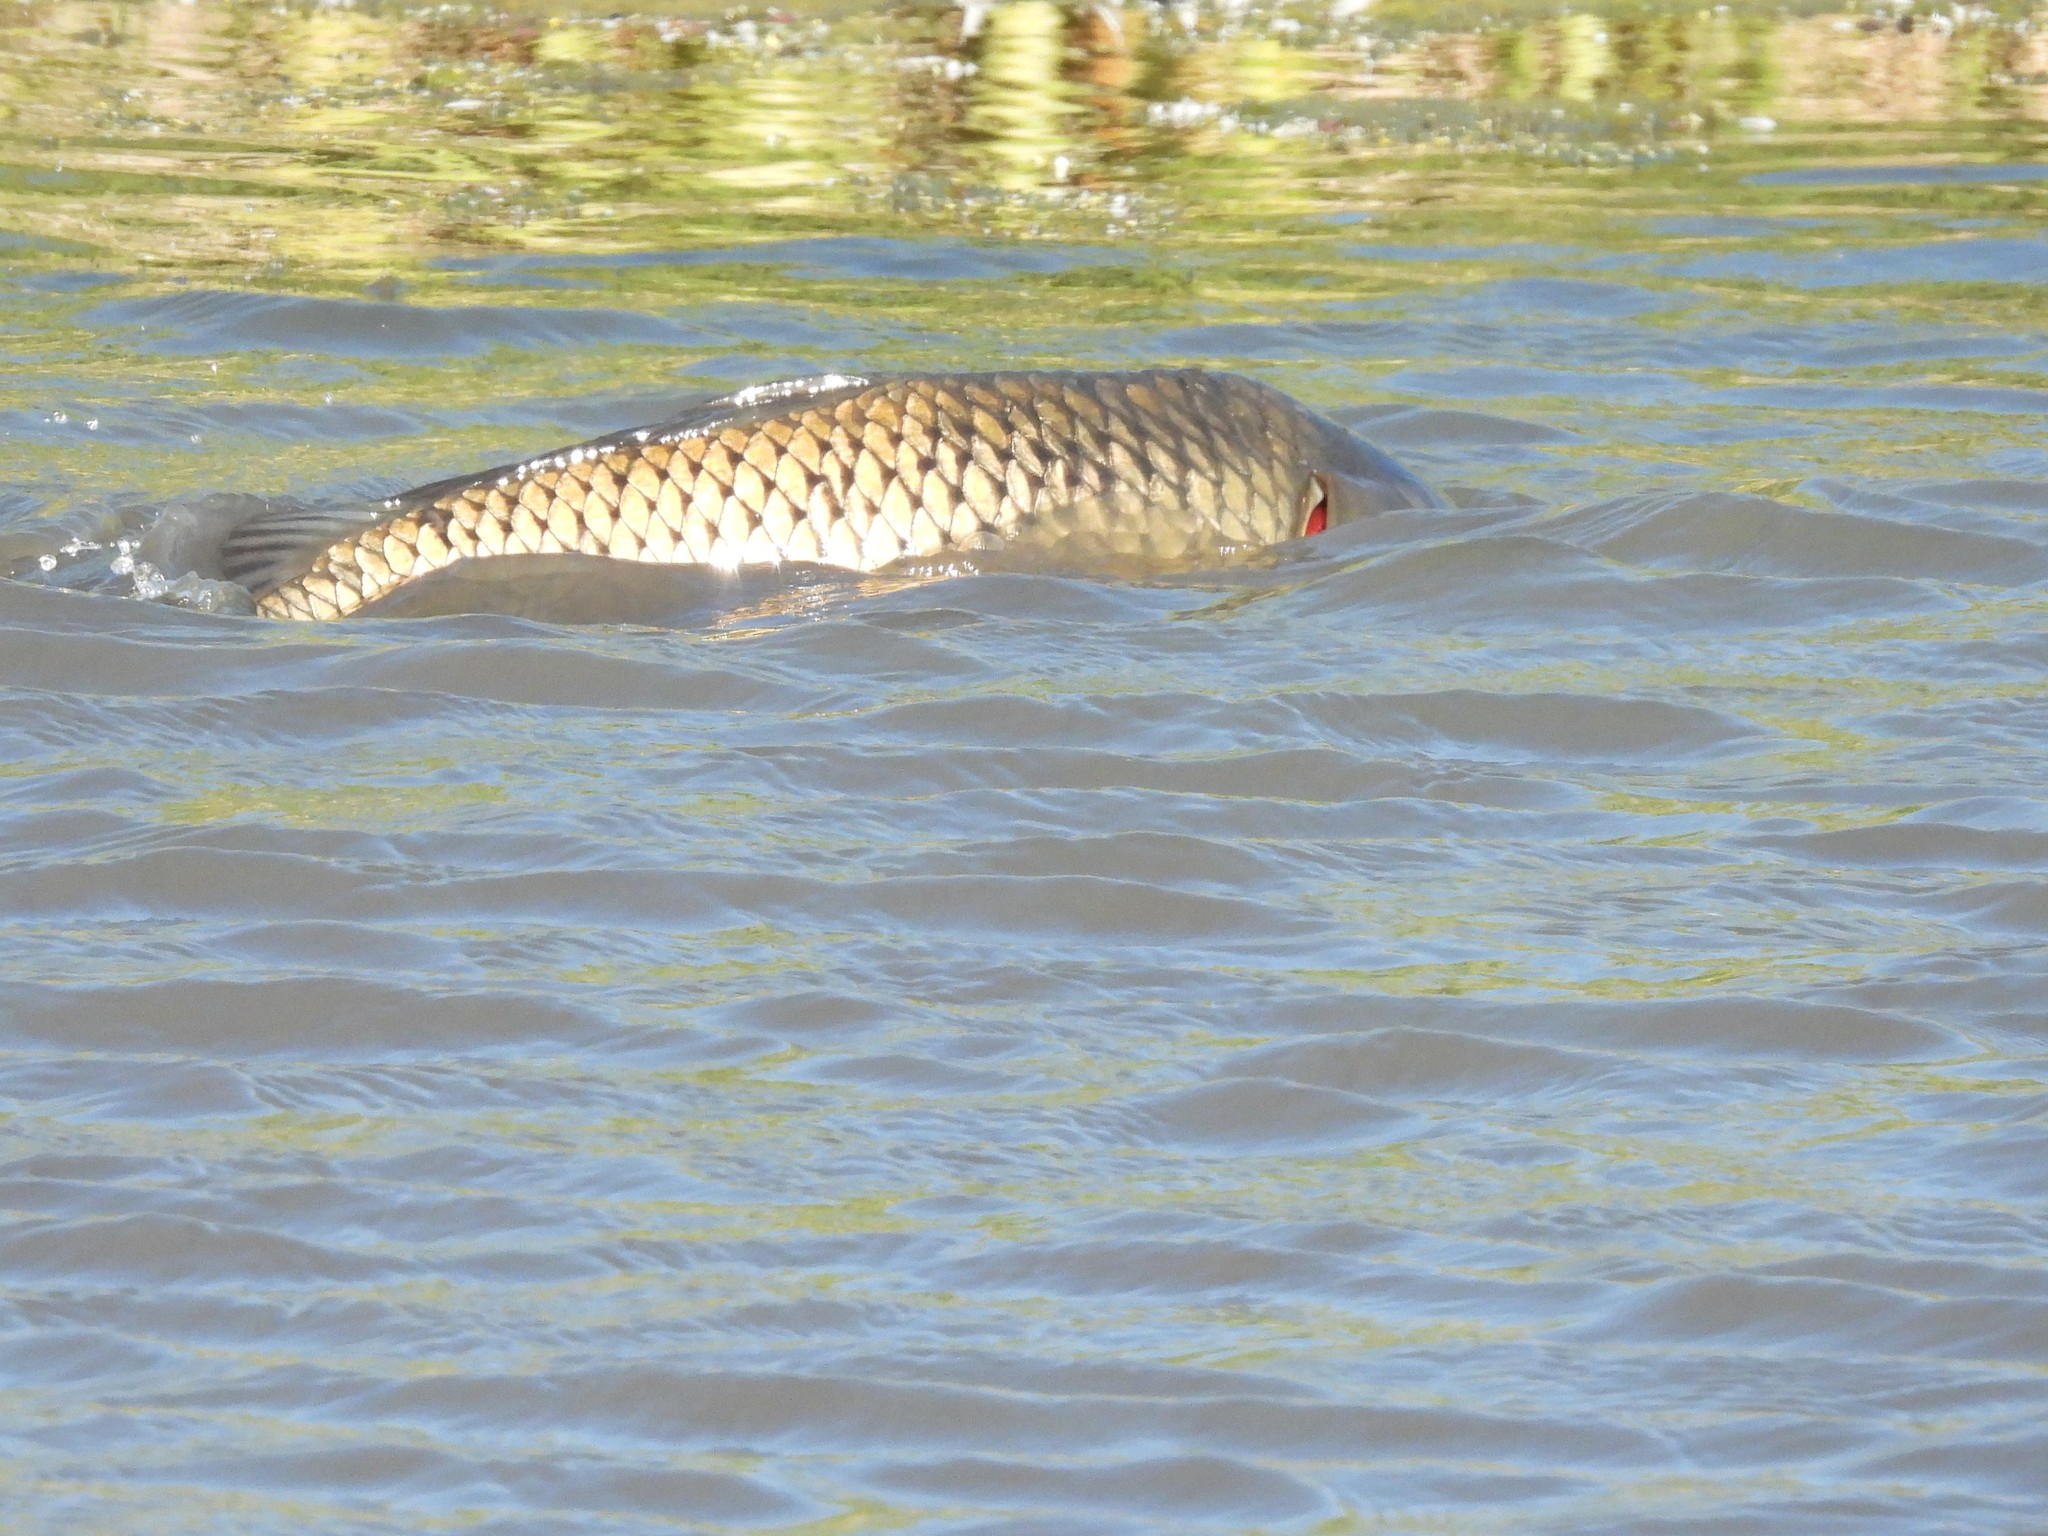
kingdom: Animalia
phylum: Chordata
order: Cypriniformes
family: Cyprinidae
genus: Cyprinus
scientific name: Cyprinus carpio
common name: Common carp
